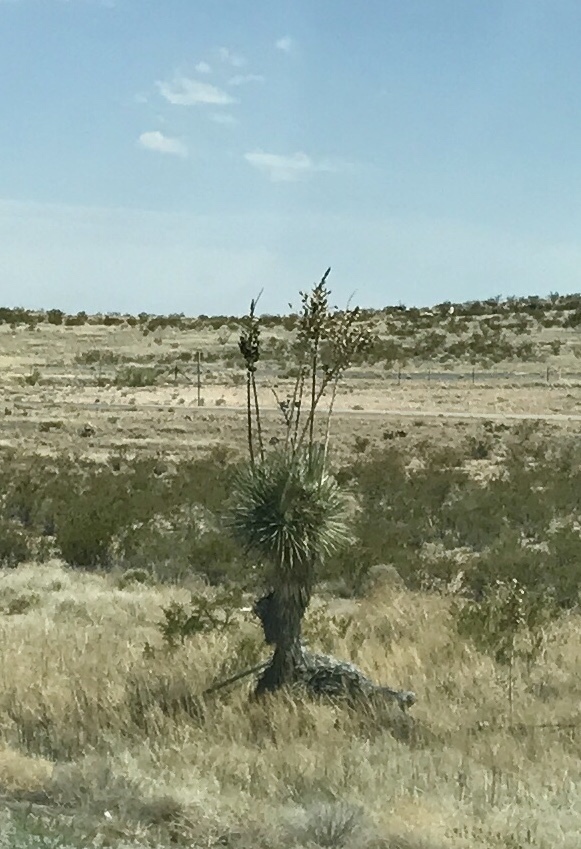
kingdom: Plantae
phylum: Tracheophyta
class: Liliopsida
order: Asparagales
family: Asparagaceae
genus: Yucca
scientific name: Yucca elata
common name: Palmella
